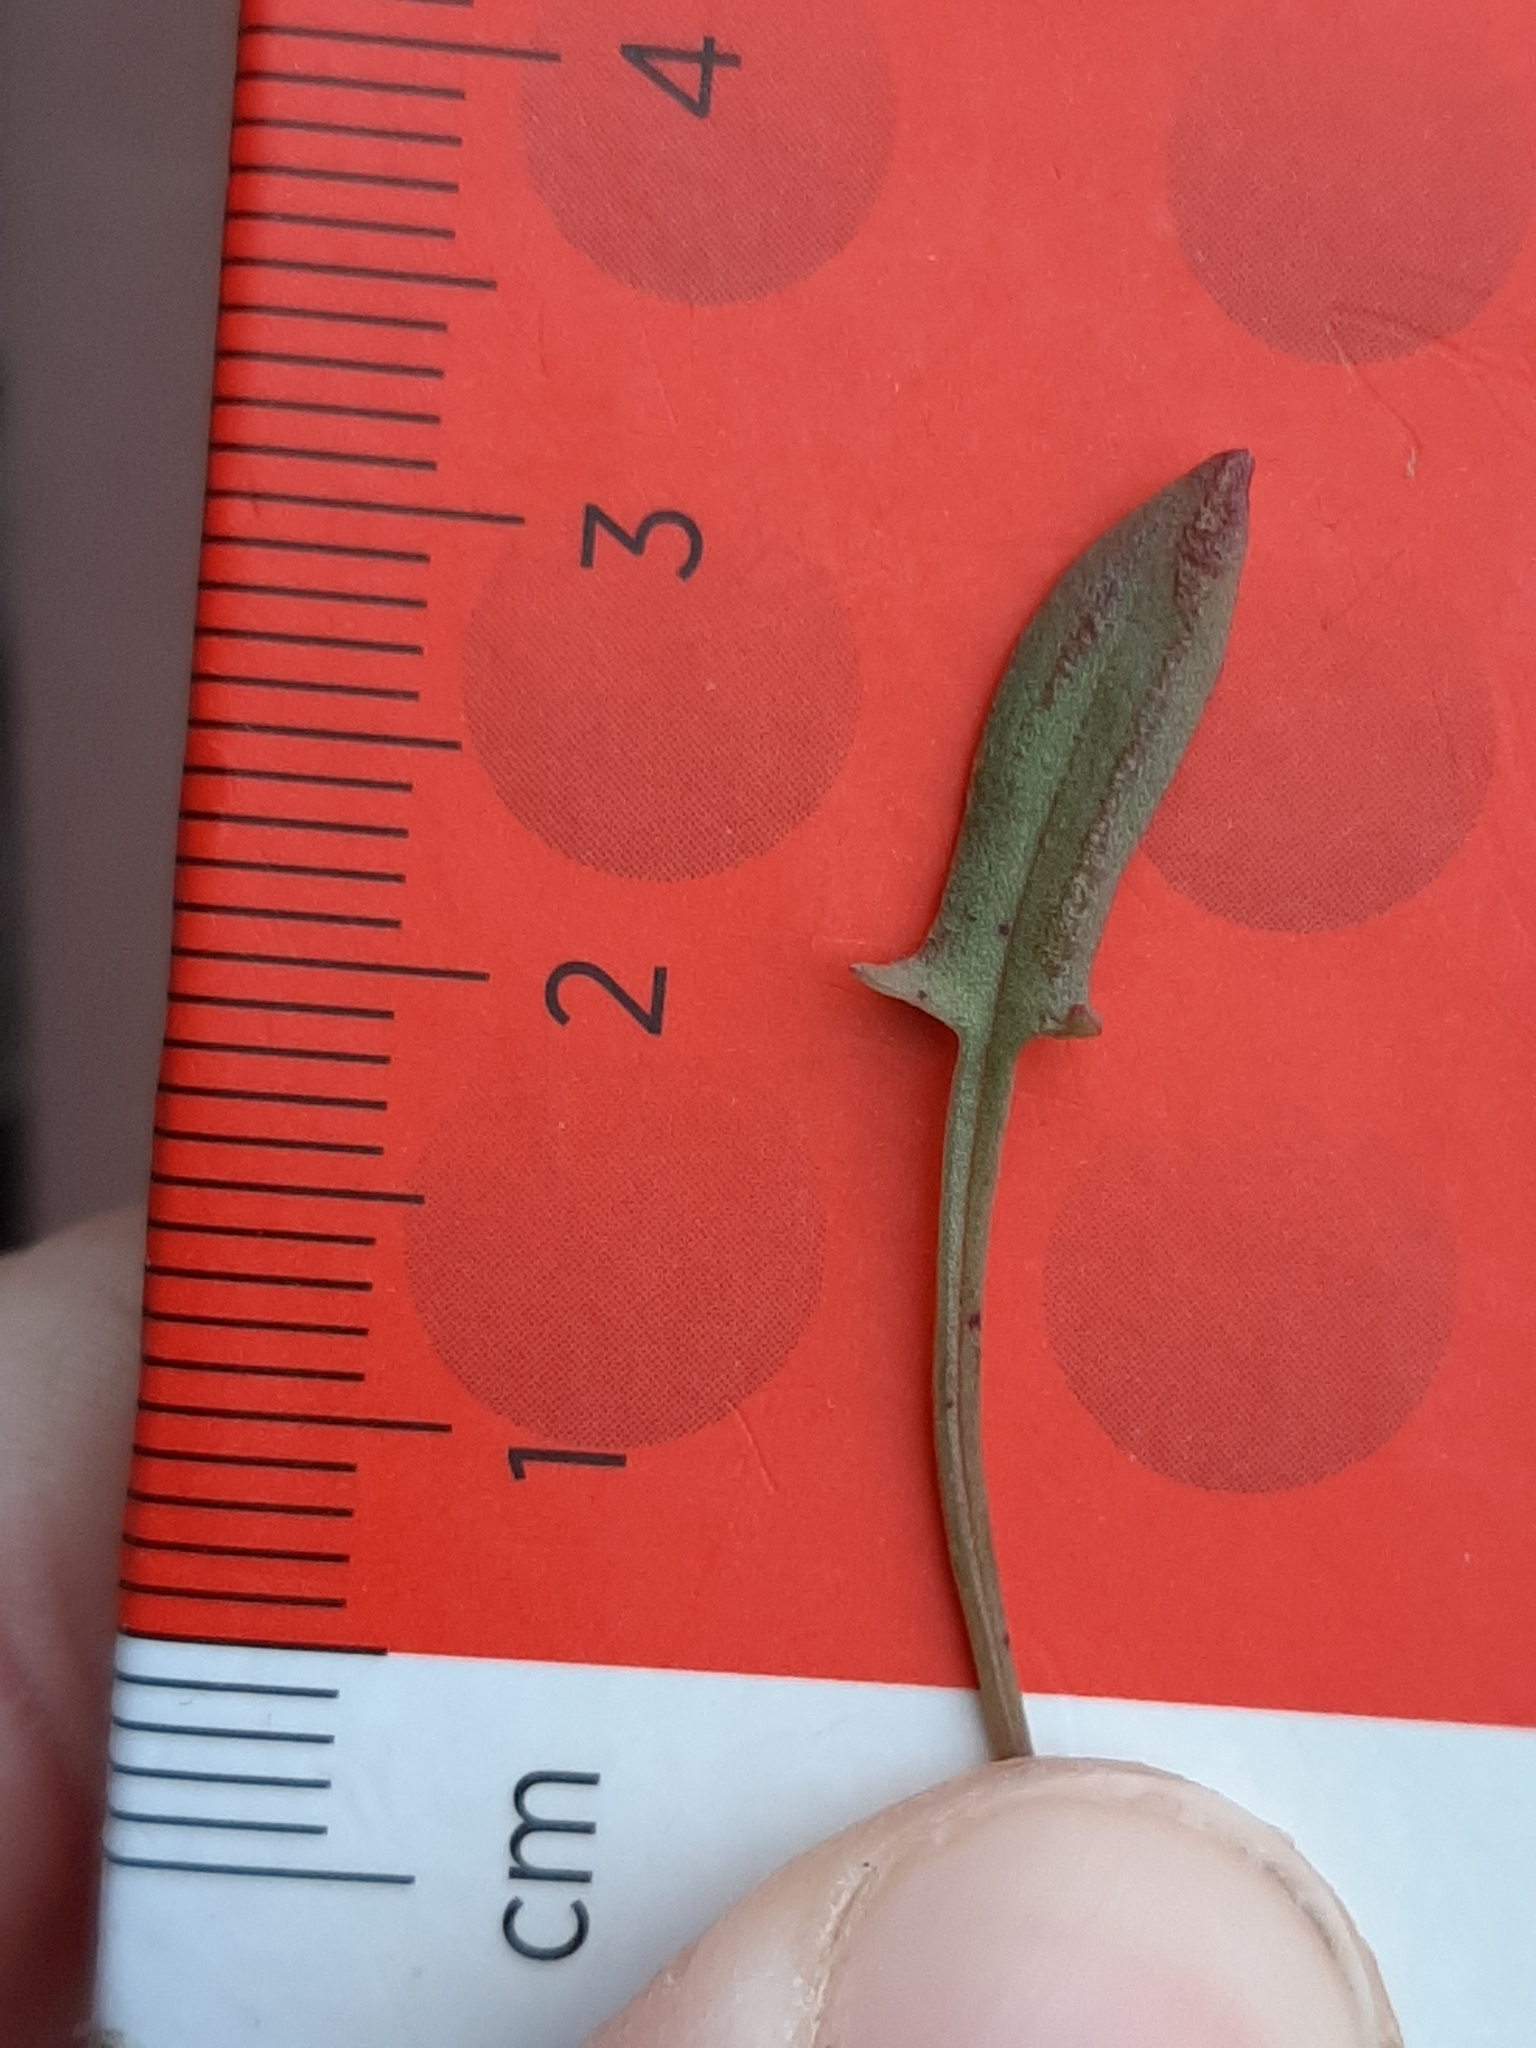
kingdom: Plantae
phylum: Tracheophyta
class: Magnoliopsida
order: Caryophyllales
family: Polygonaceae
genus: Rumex
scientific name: Rumex acetosella
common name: Common sheep sorrel
